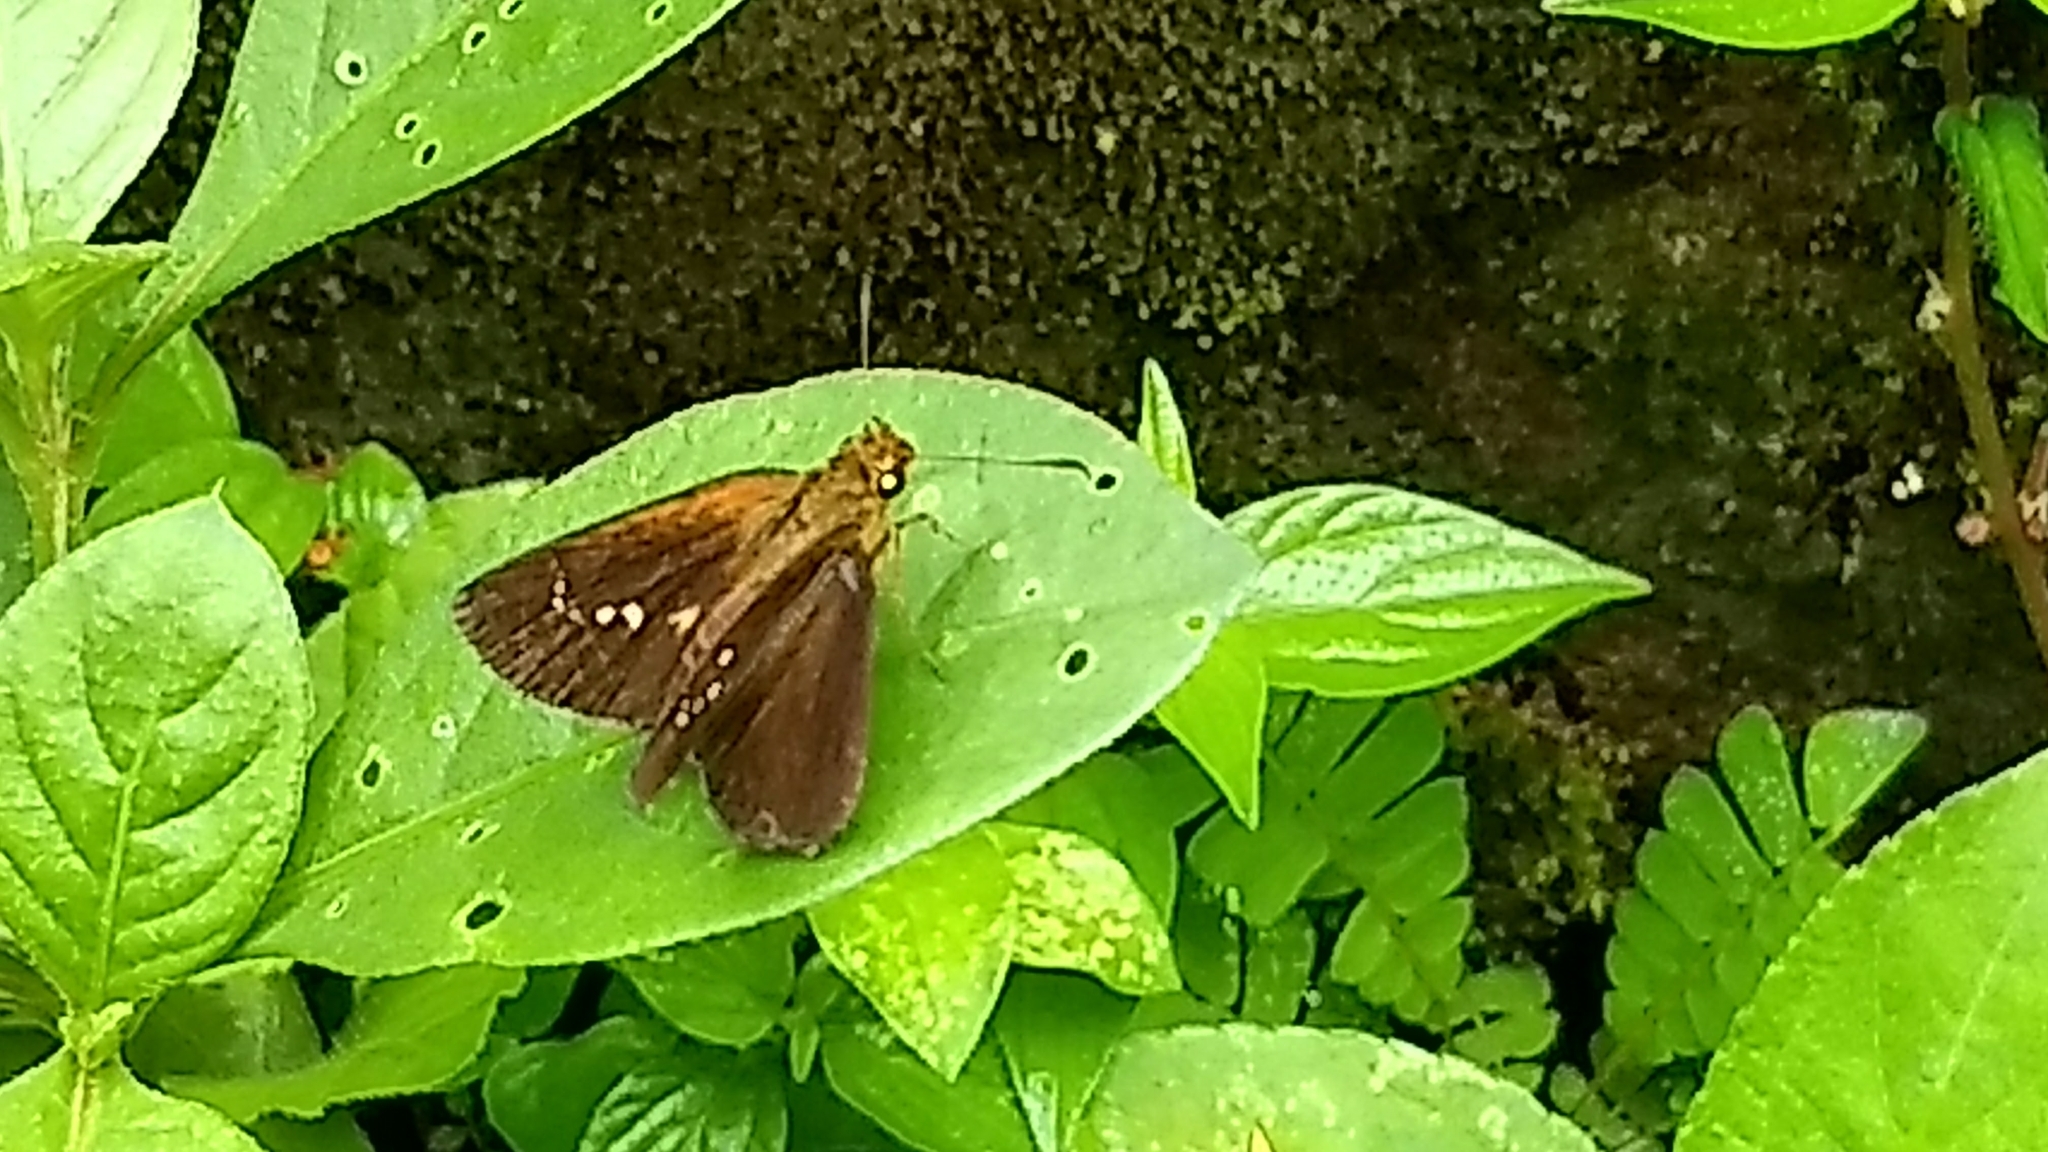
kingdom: Animalia
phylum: Arthropoda
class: Insecta
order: Lepidoptera
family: Hesperiidae
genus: Iambrix
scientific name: Iambrix salsala
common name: Chestnut bob
